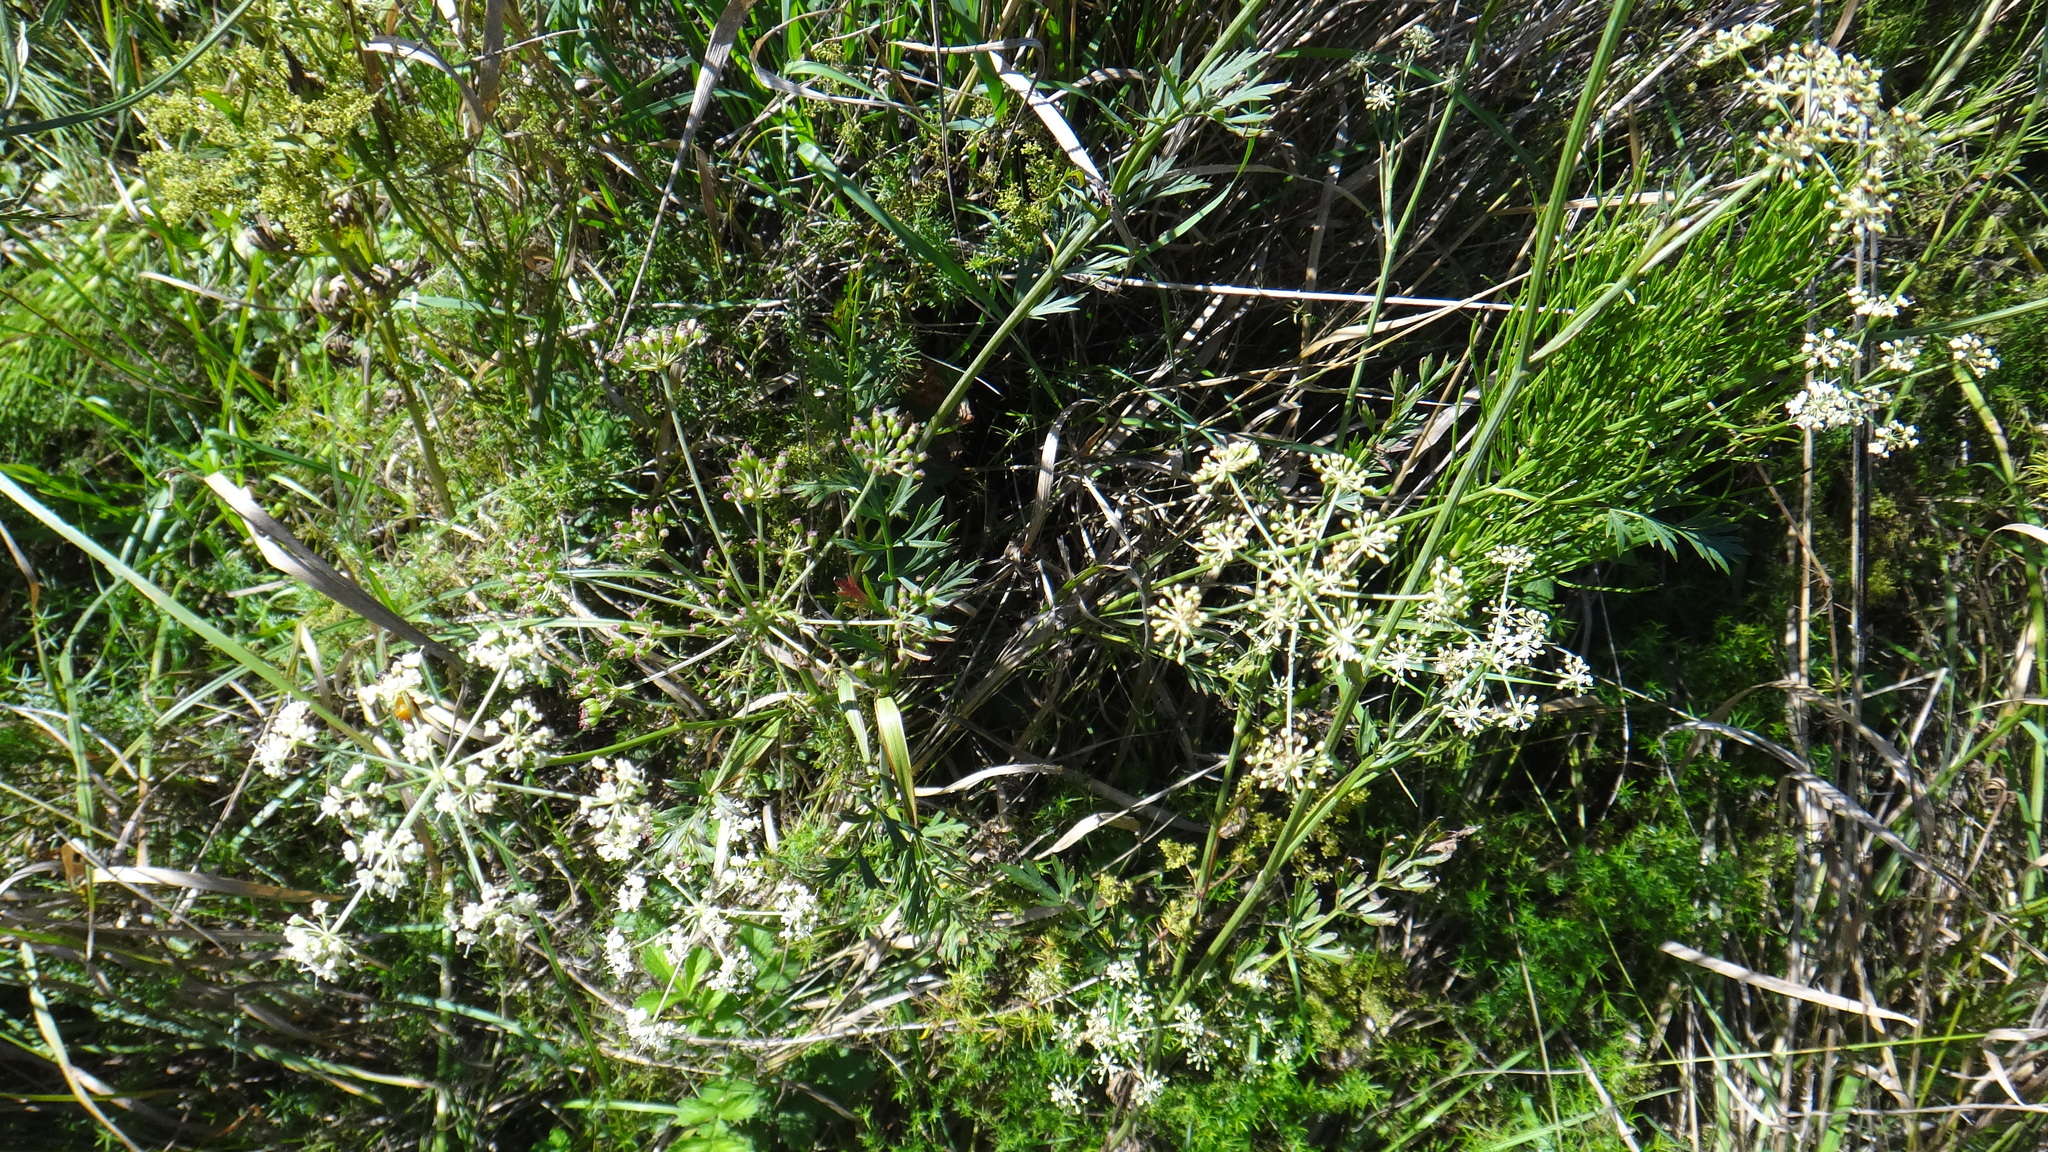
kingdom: Plantae
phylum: Tracheophyta
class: Magnoliopsida
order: Apiales
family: Apiaceae
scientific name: Apiaceae
